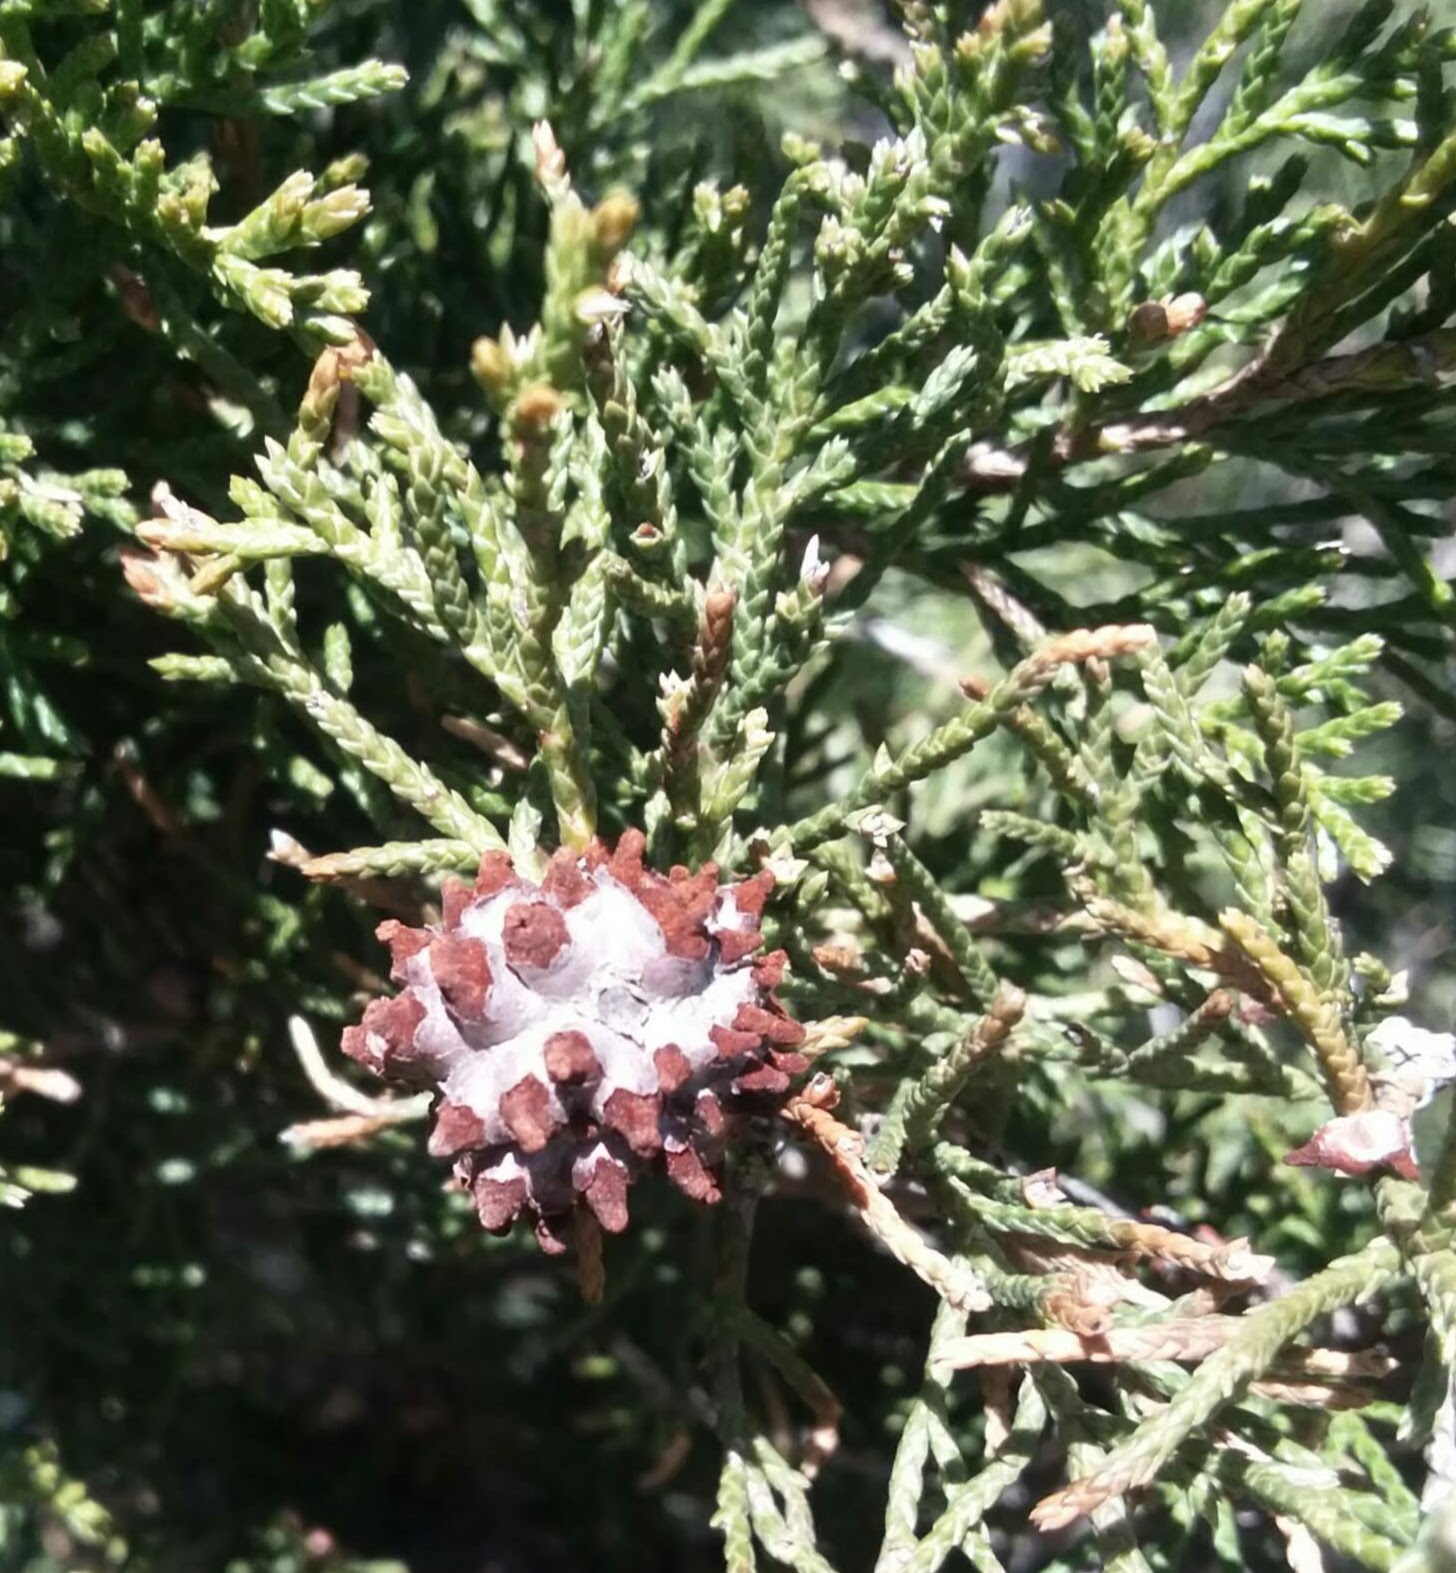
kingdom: Fungi
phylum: Basidiomycota
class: Pucciniomycetes
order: Pucciniales
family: Gymnosporangiaceae
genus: Gymnosporangium
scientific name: Gymnosporangium juniperi-virginianae
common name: Juniper-apple rust
